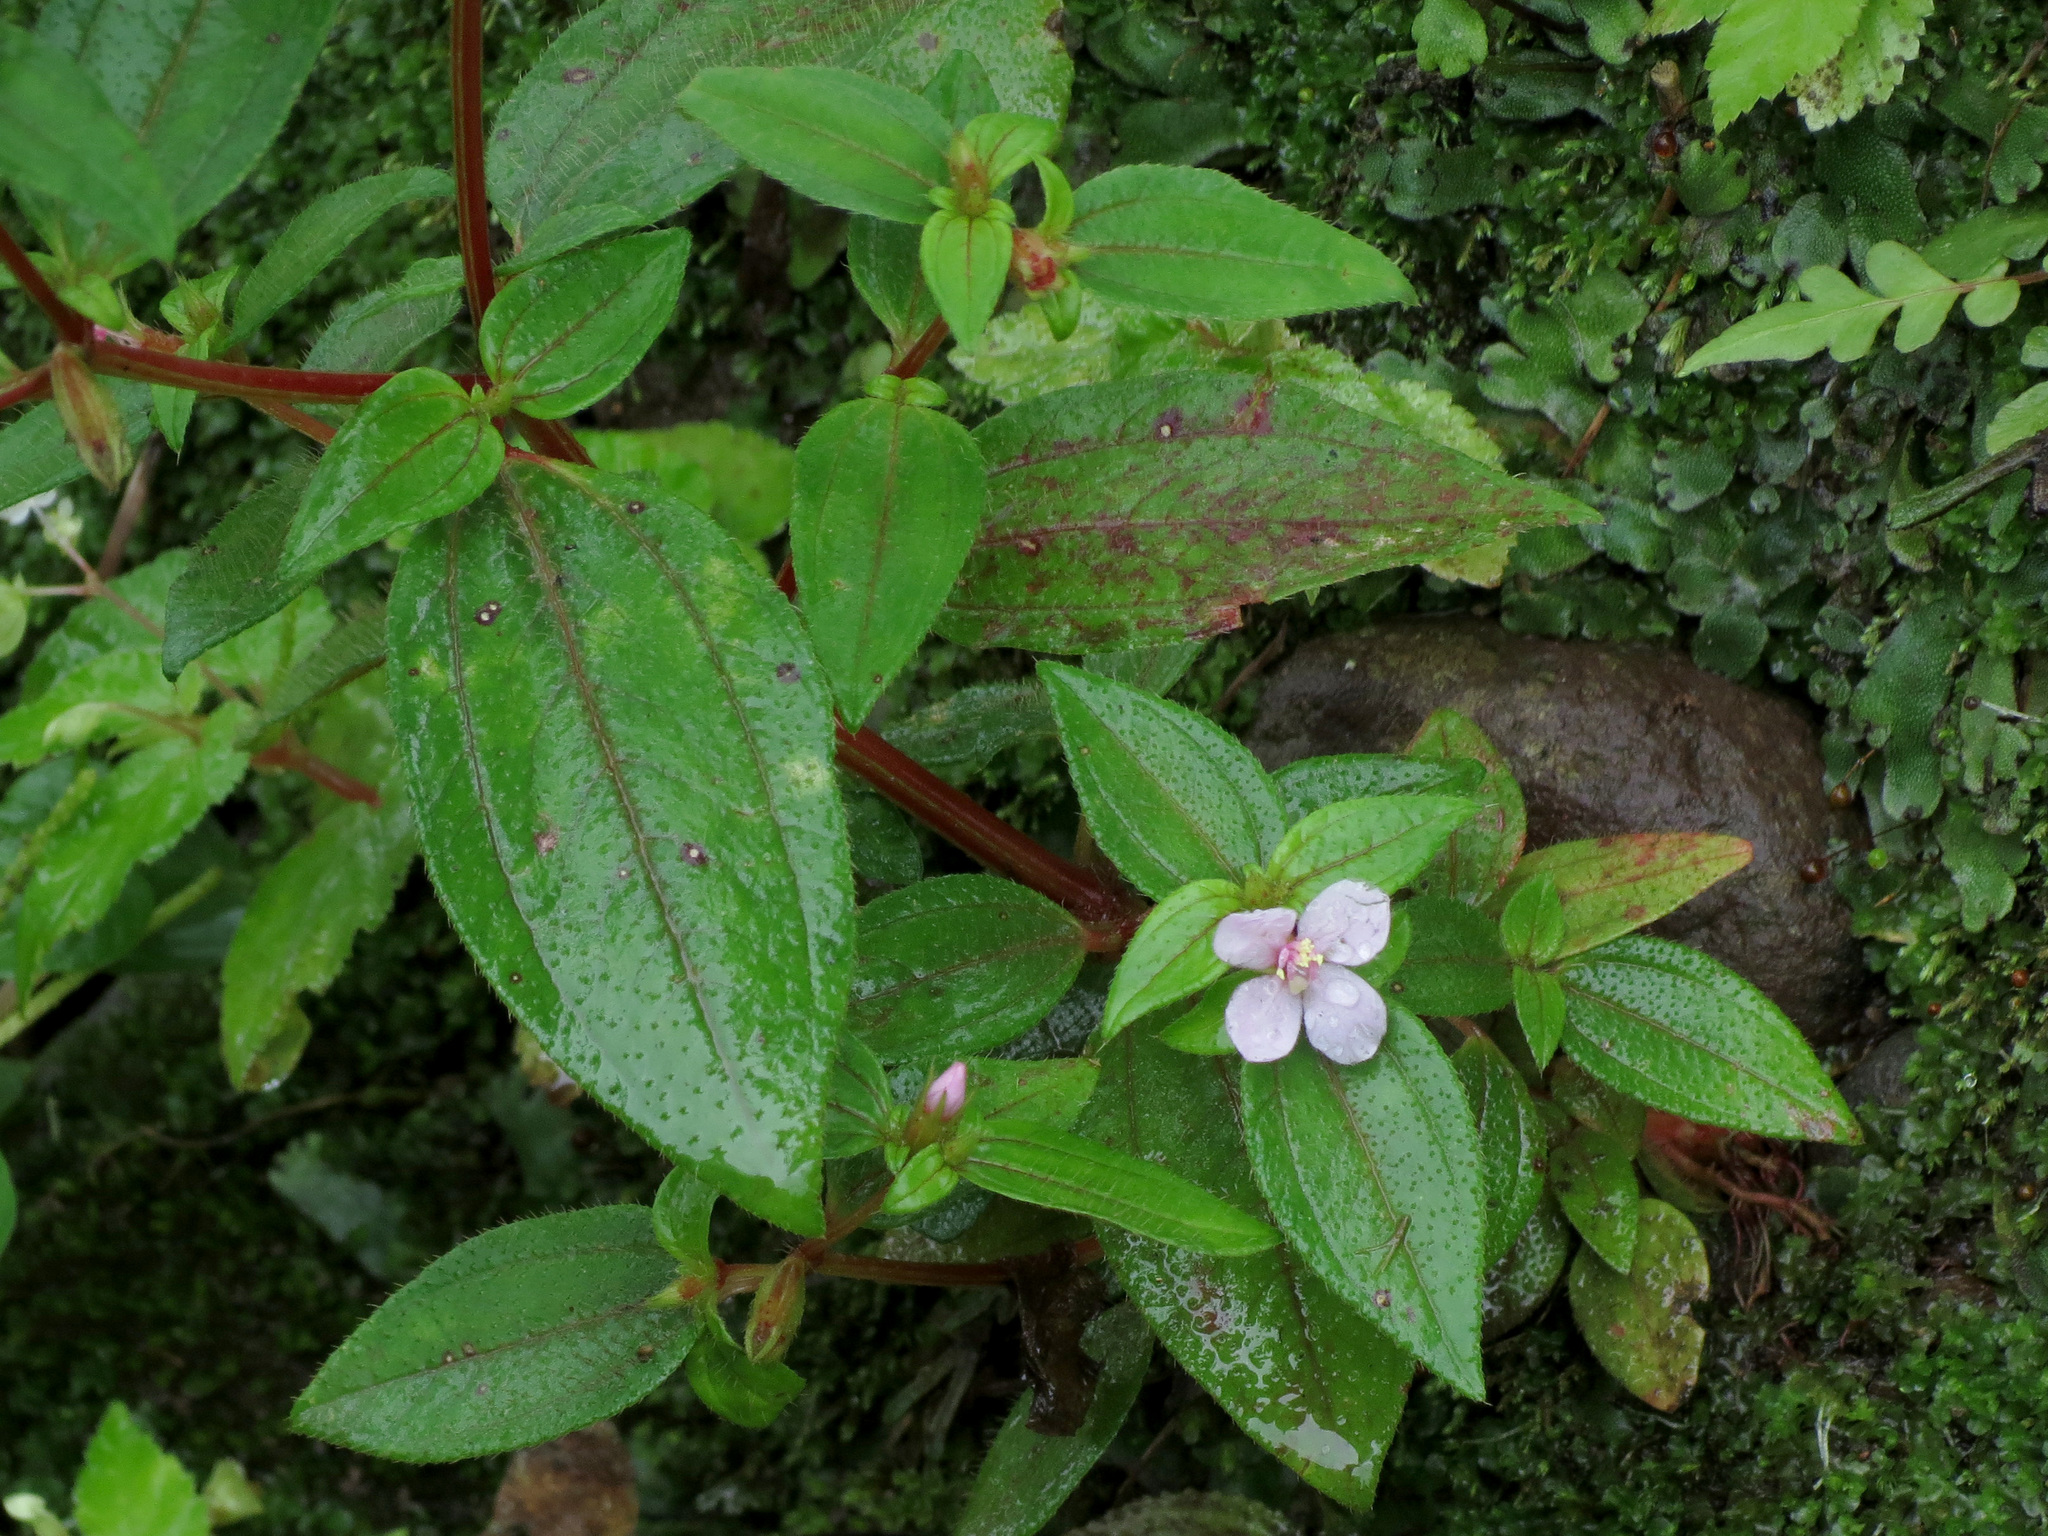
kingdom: Plantae
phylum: Tracheophyta
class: Magnoliopsida
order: Myrtales
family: Melastomataceae
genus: Schwackaea
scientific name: Schwackaea cupheoides
